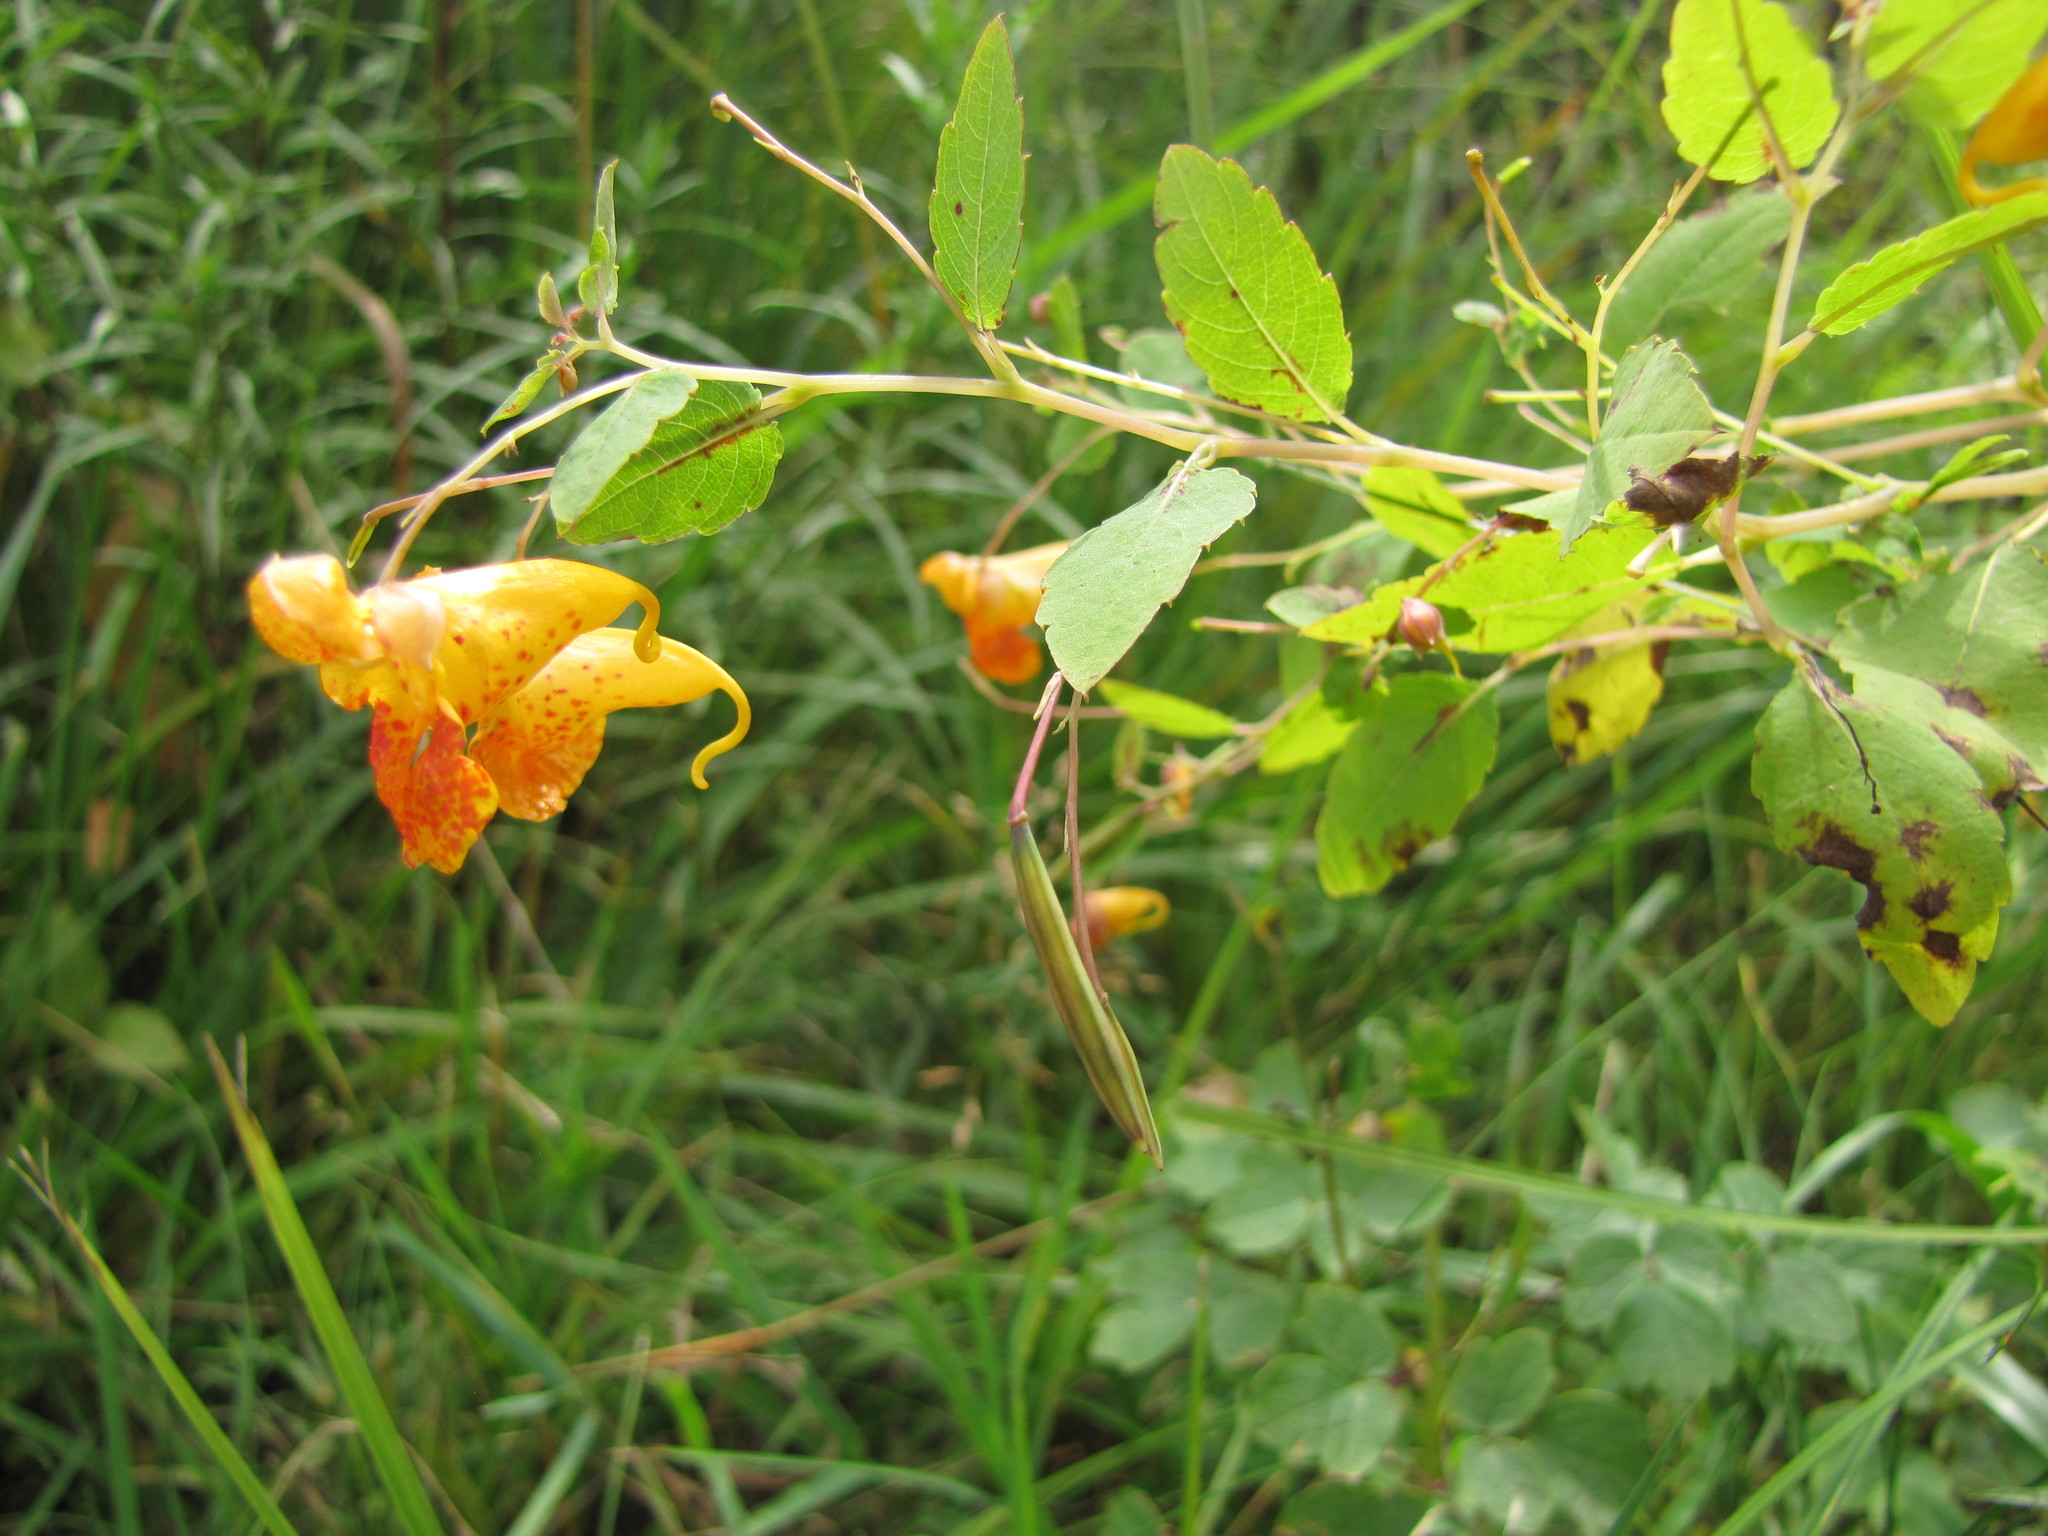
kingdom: Plantae
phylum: Tracheophyta
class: Magnoliopsida
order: Ericales
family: Balsaminaceae
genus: Impatiens
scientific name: Impatiens capensis
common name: Orange balsam
